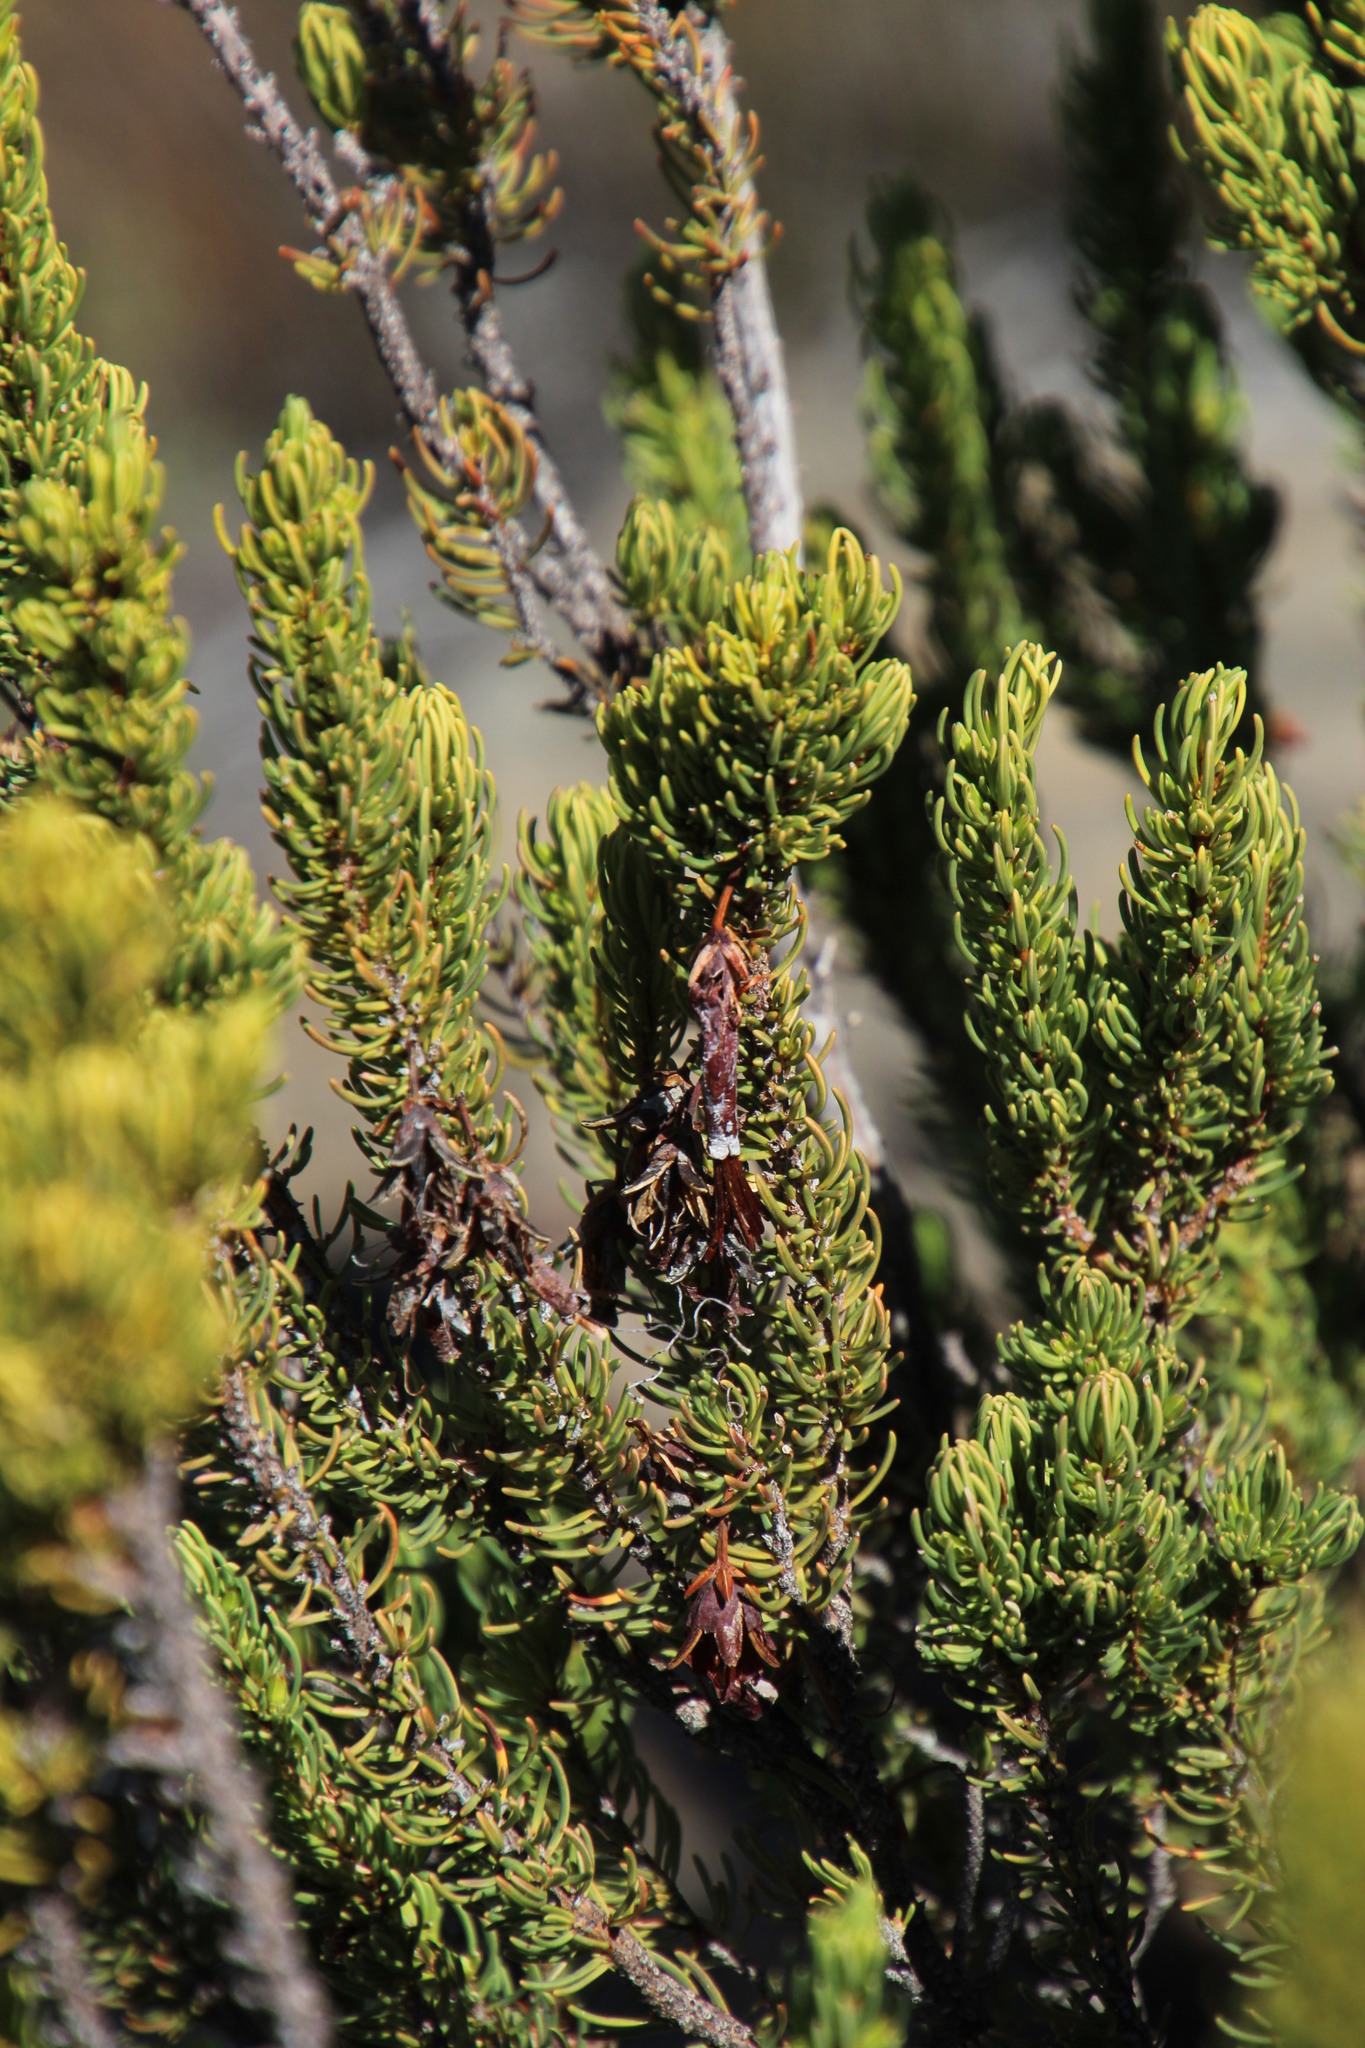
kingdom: Plantae
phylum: Tracheophyta
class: Magnoliopsida
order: Ericales
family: Ericaceae
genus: Erica
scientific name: Erica plukenetii
